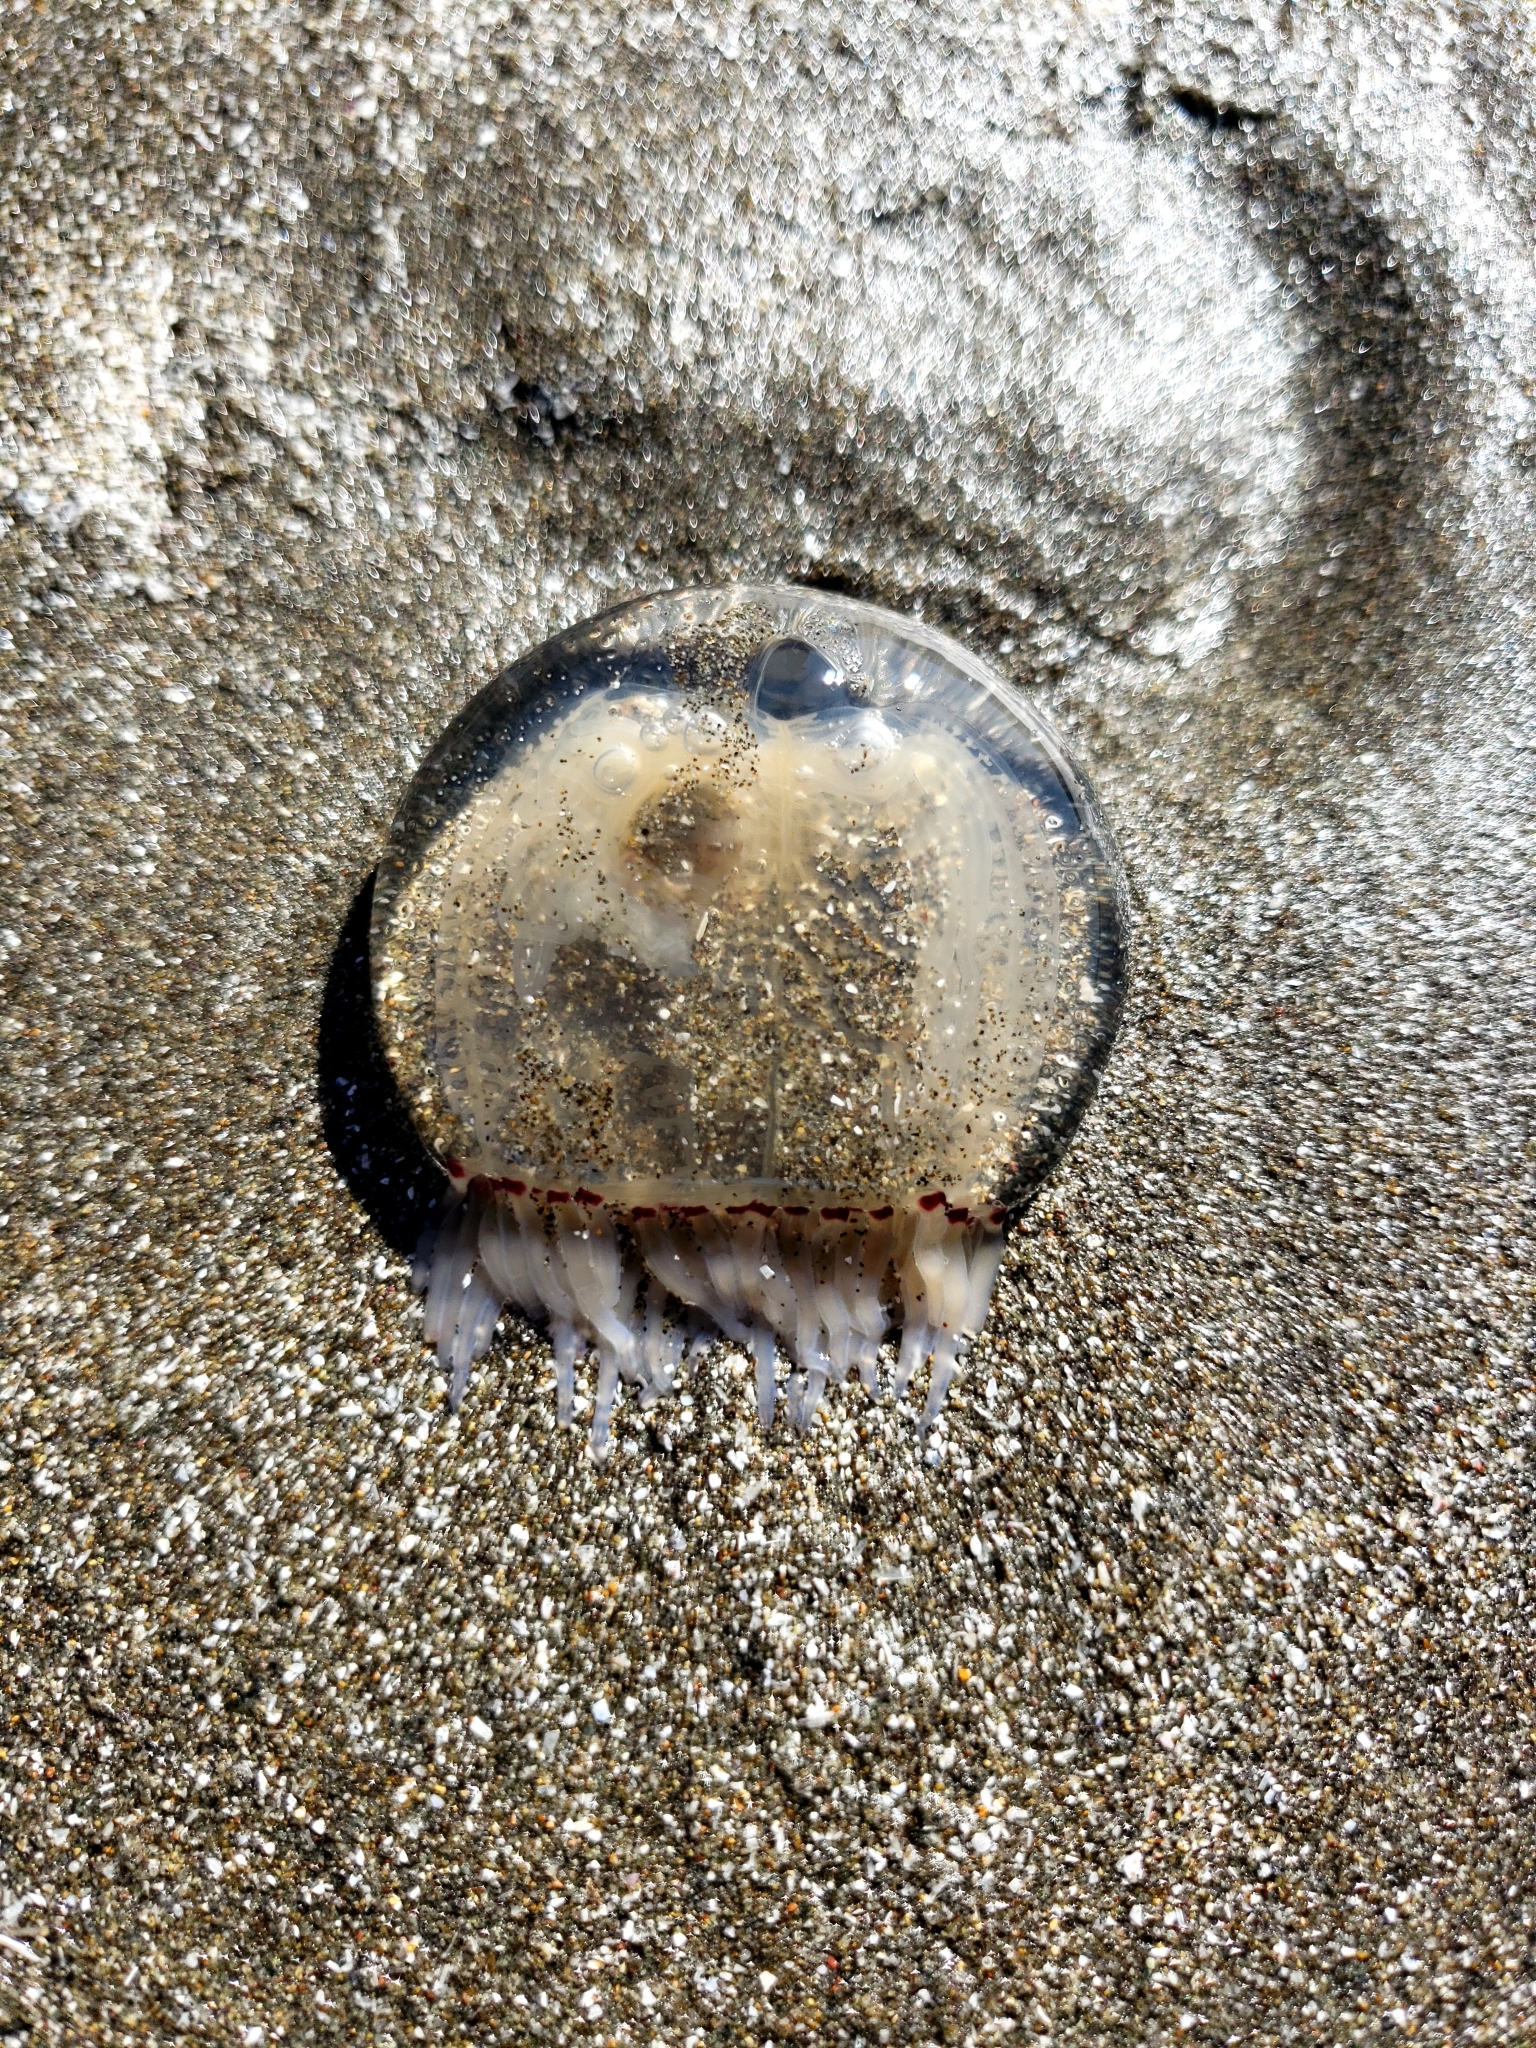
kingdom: Animalia
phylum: Cnidaria
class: Hydrozoa
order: Anthoathecata
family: Corynidae
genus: Polyorchis
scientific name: Polyorchis penicillatus
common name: Penicillate jellyfish
